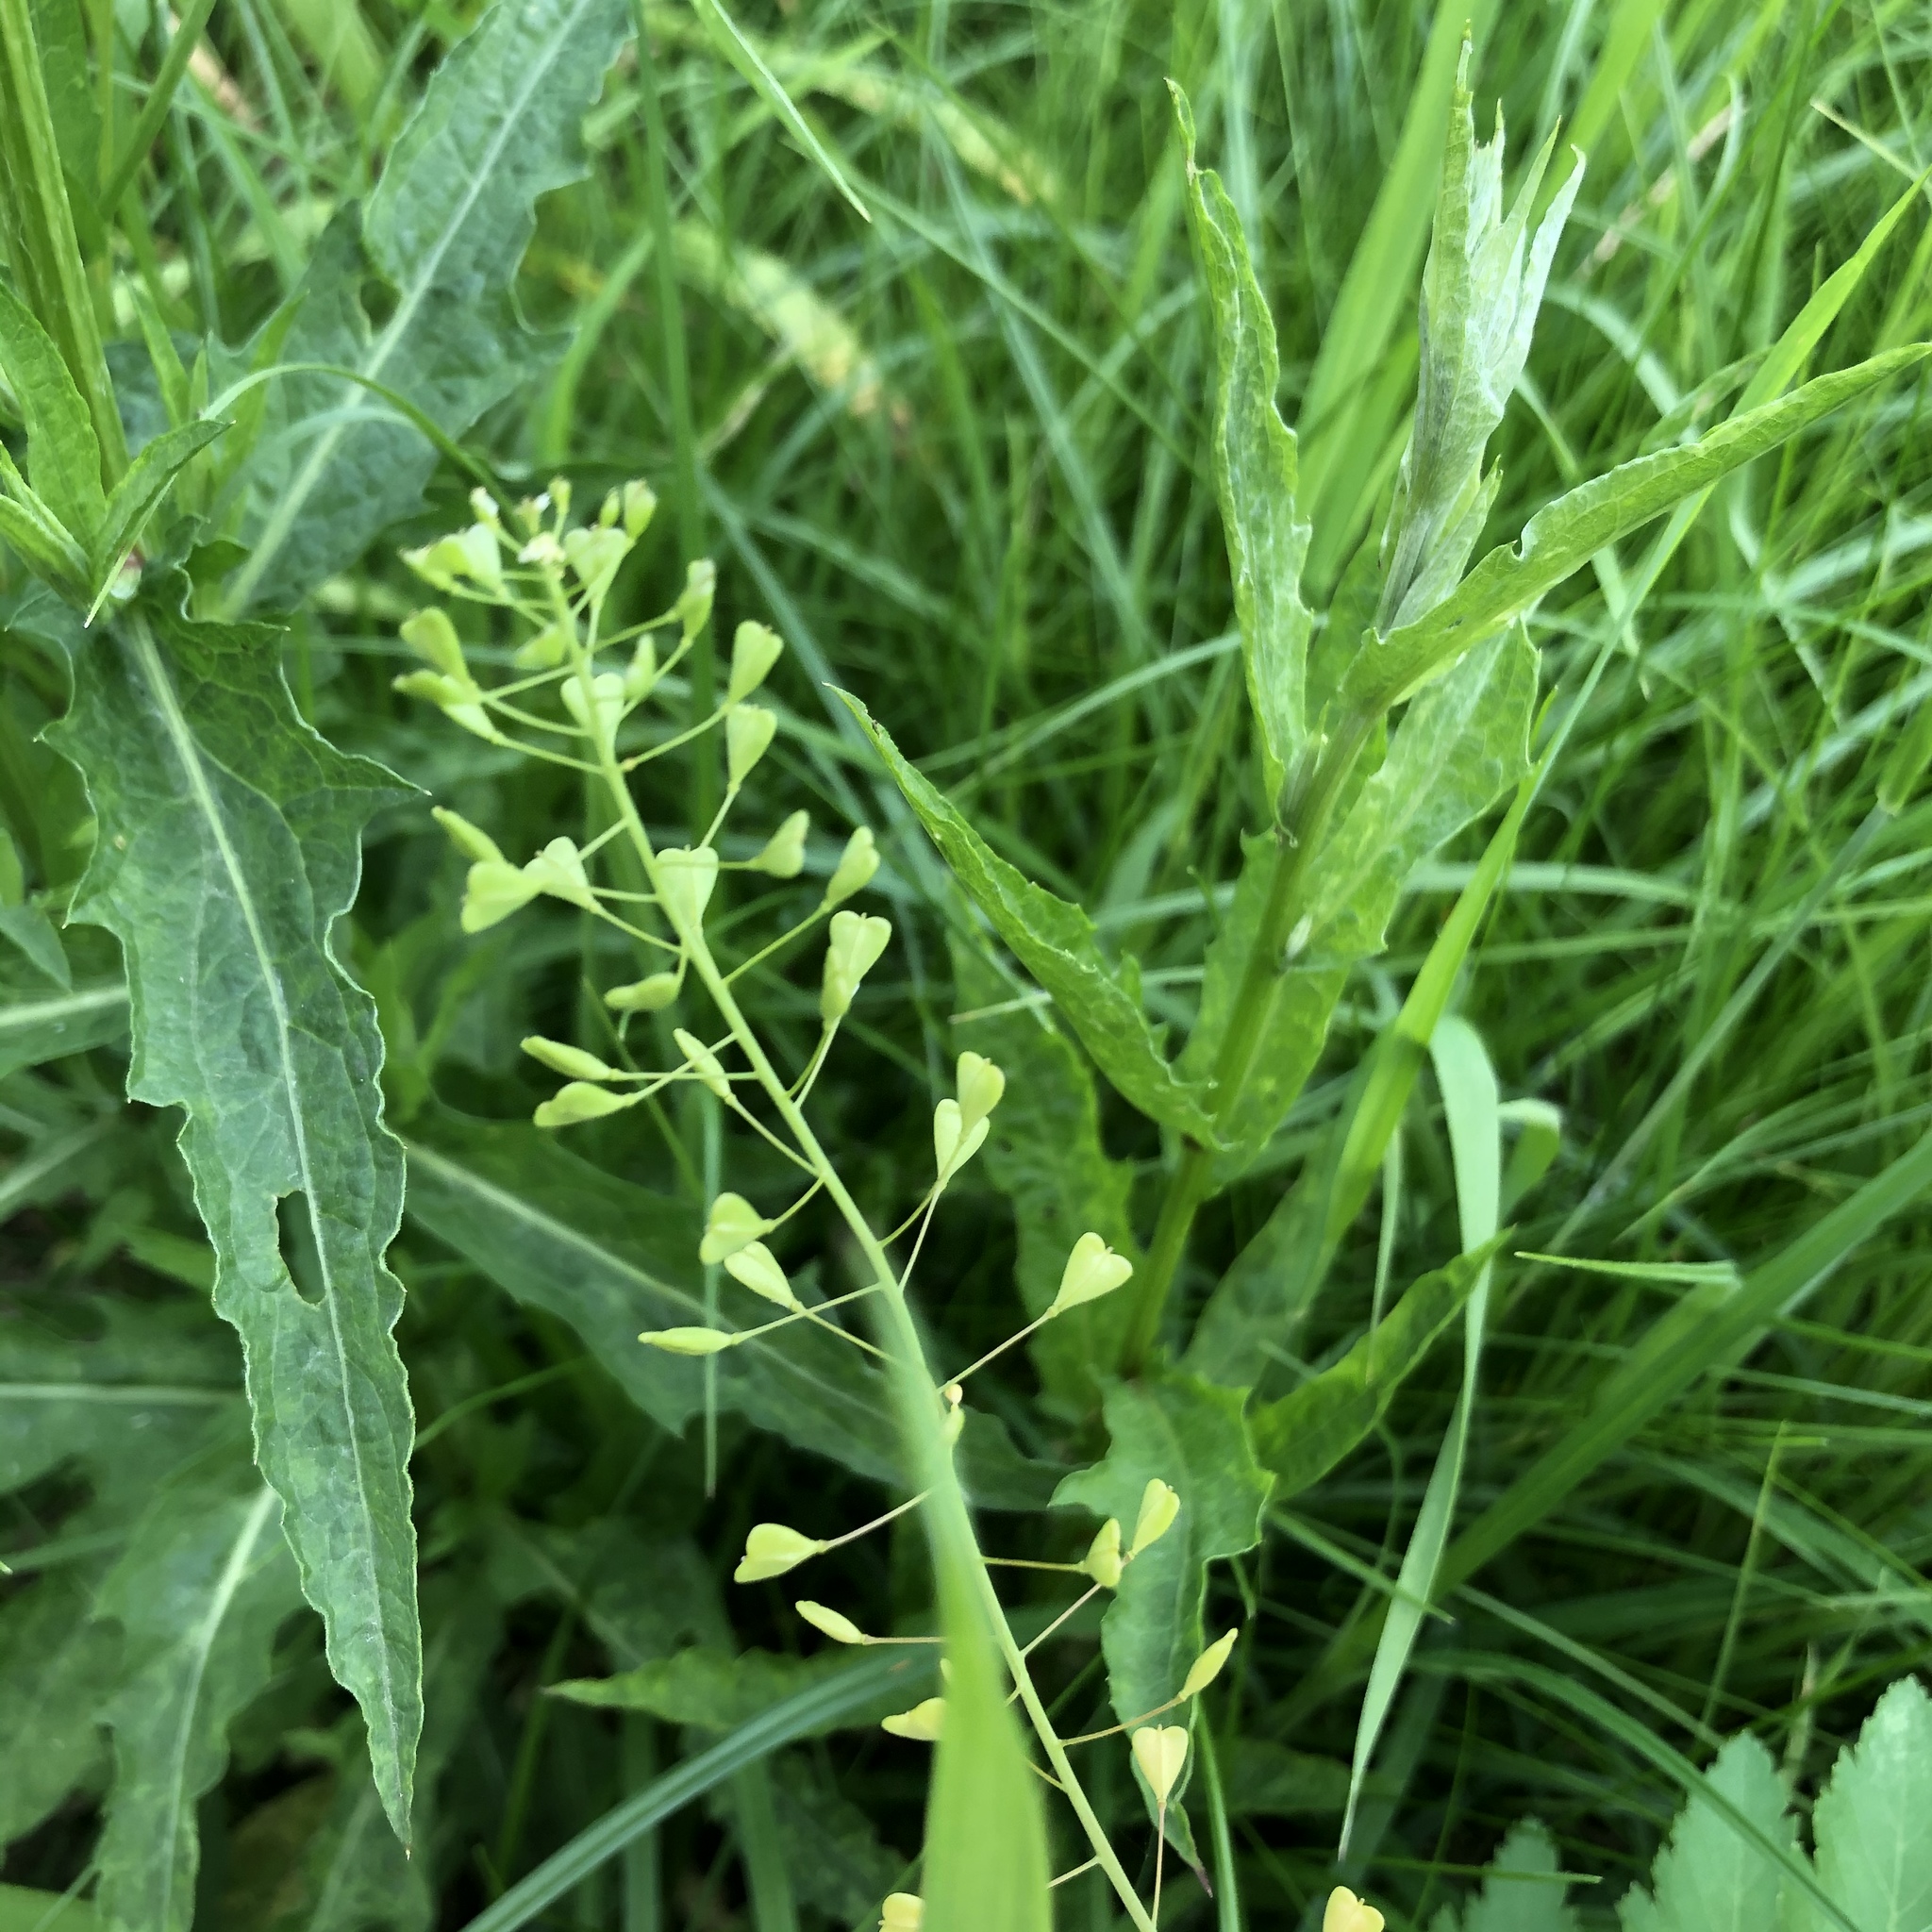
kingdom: Plantae
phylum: Tracheophyta
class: Magnoliopsida
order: Brassicales
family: Brassicaceae
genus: Capsella
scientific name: Capsella bursa-pastoris
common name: Shepherd's purse
